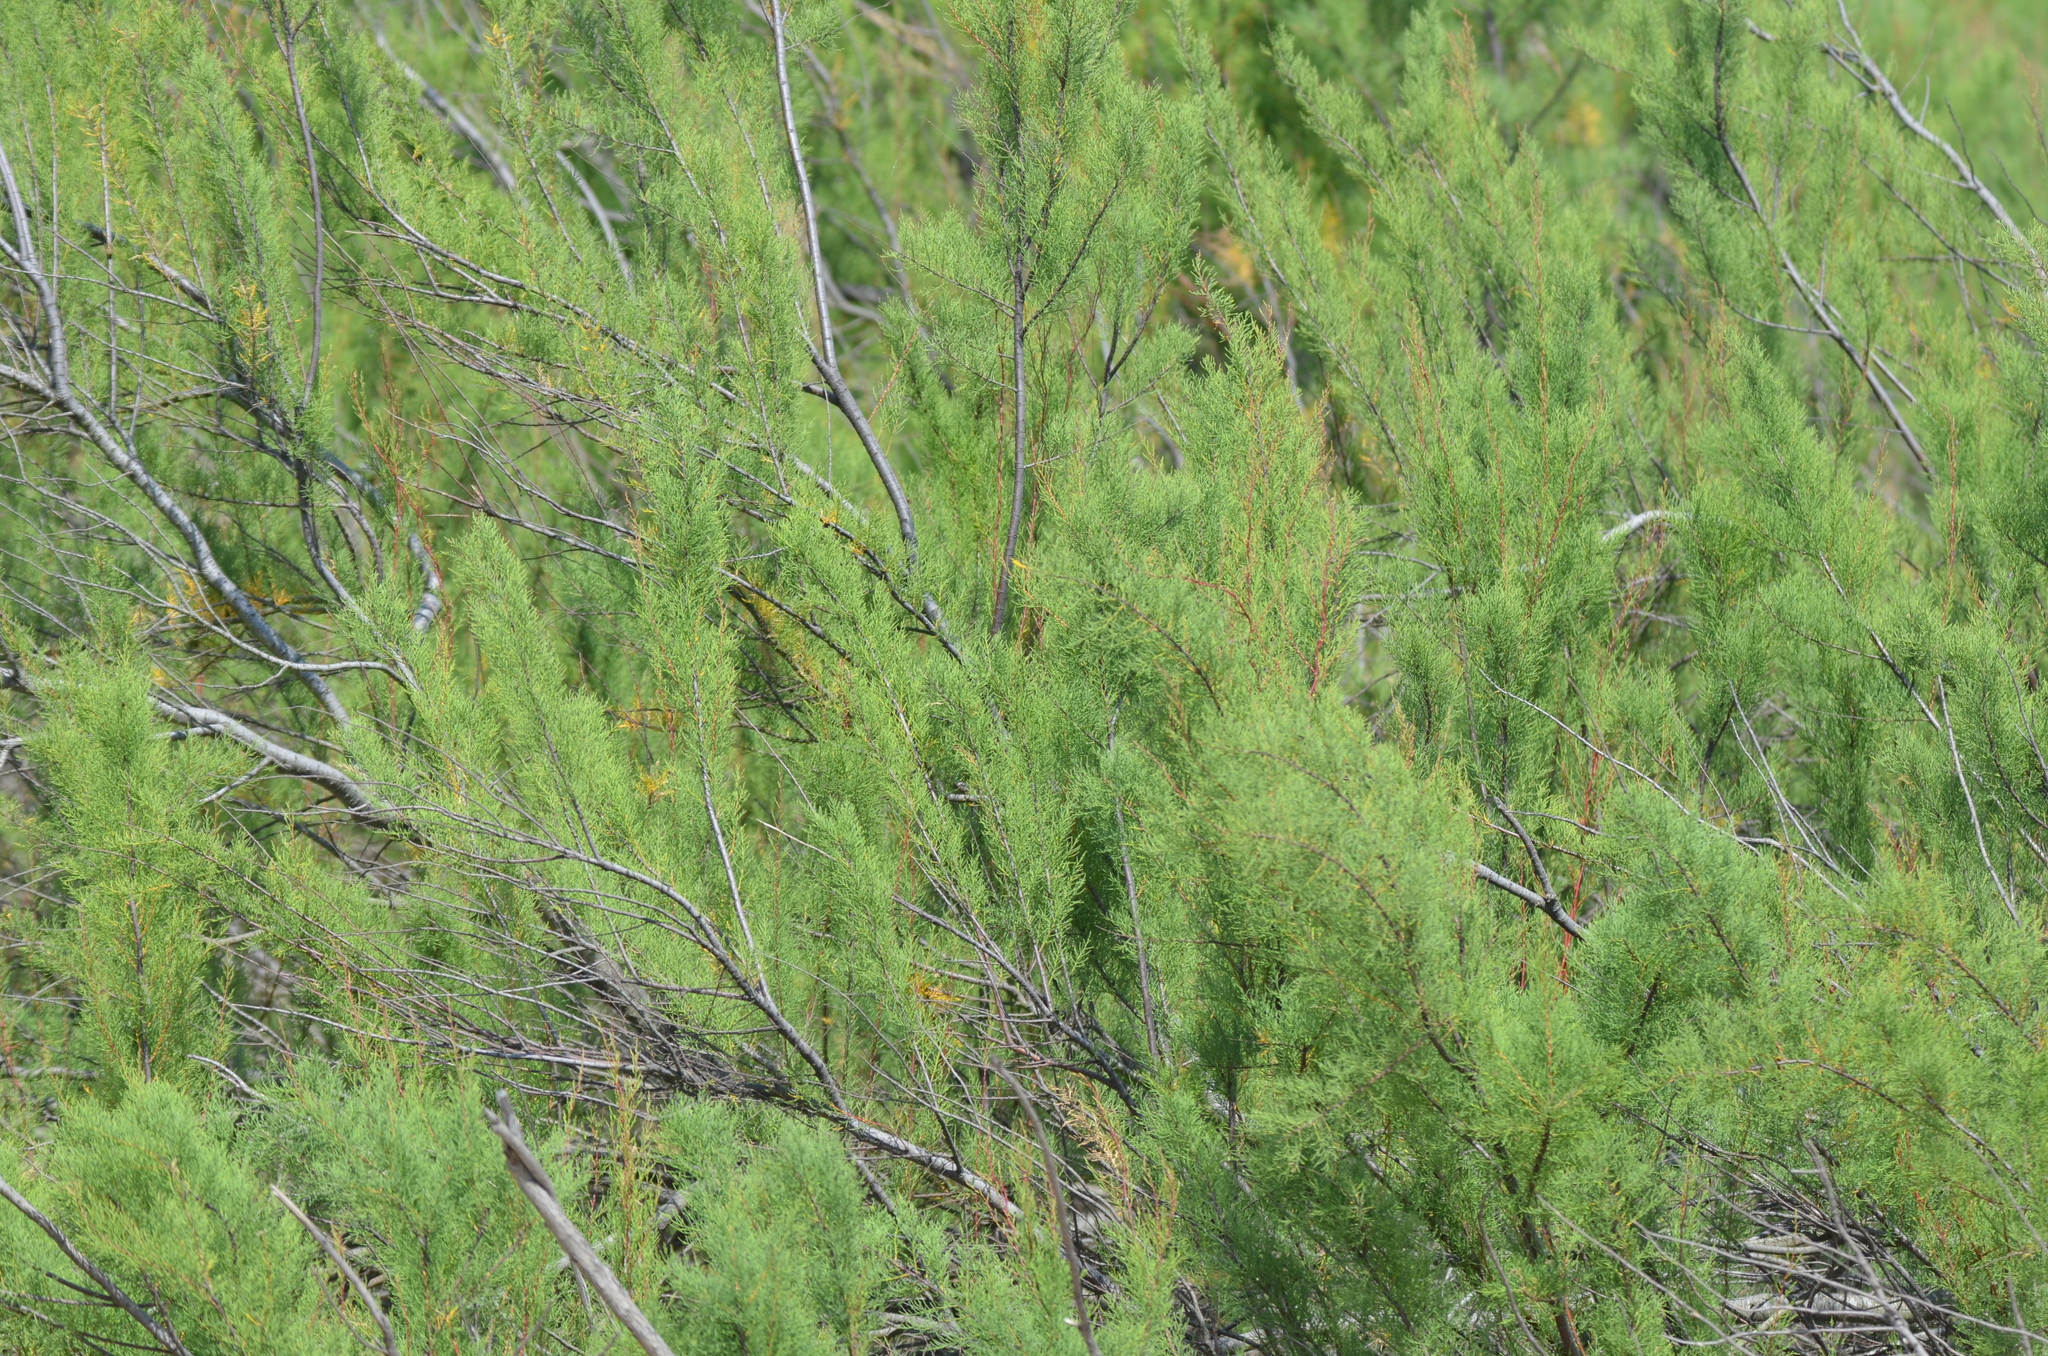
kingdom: Plantae
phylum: Tracheophyta
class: Magnoliopsida
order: Caryophyllales
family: Tamaricaceae
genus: Tamarix
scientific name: Tamarix ramosissima
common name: Pink tamarisk
